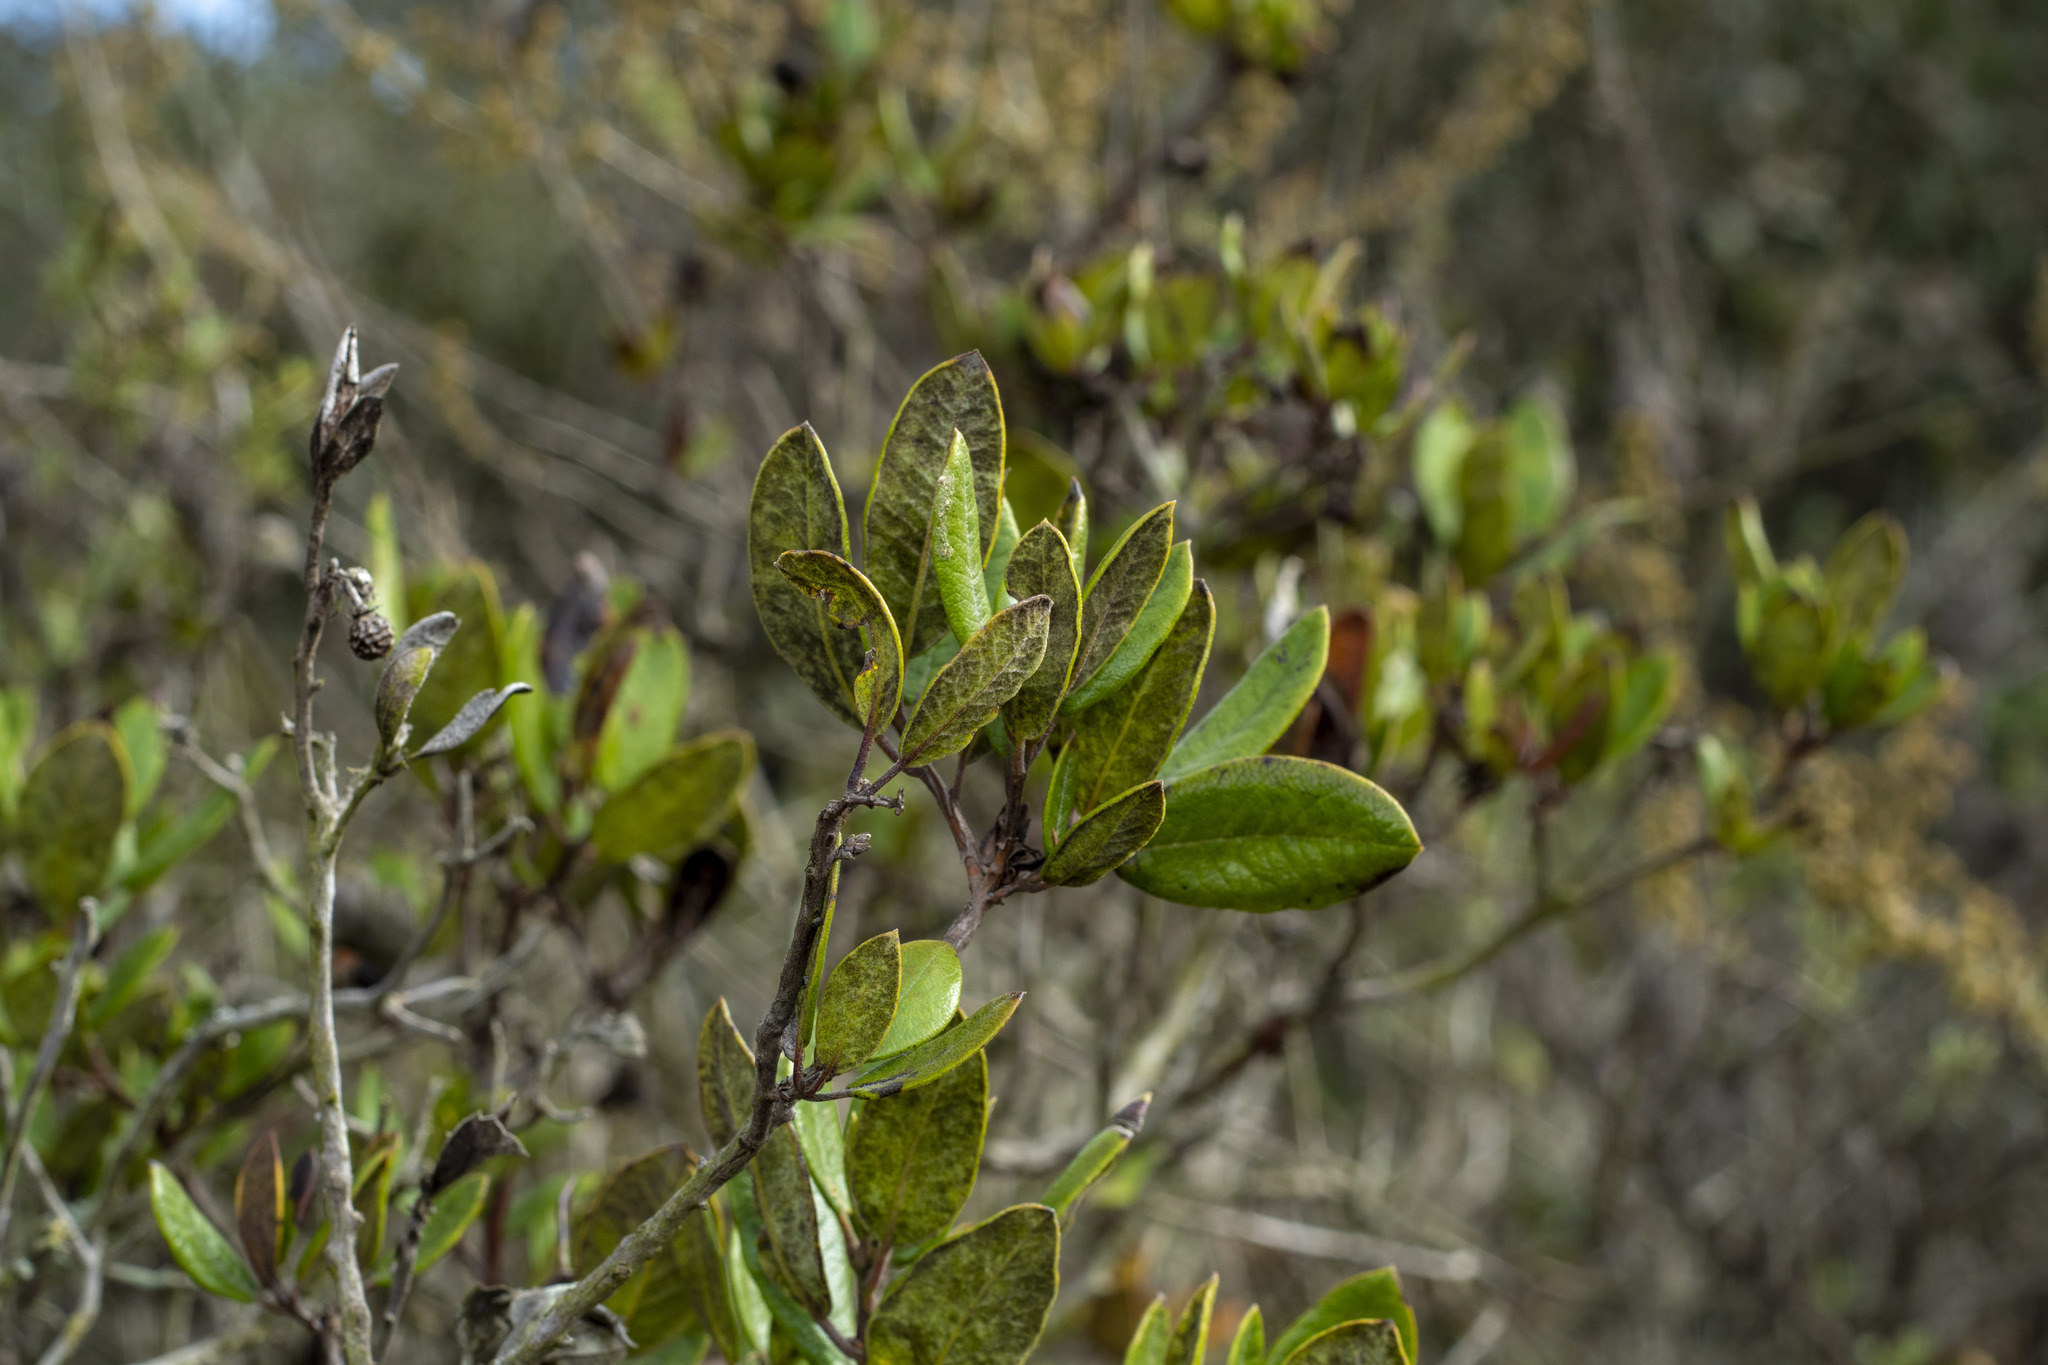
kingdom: Plantae
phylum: Tracheophyta
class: Magnoliopsida
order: Ericales
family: Ericaceae
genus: Arctostaphylos
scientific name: Arctostaphylos bicolor
